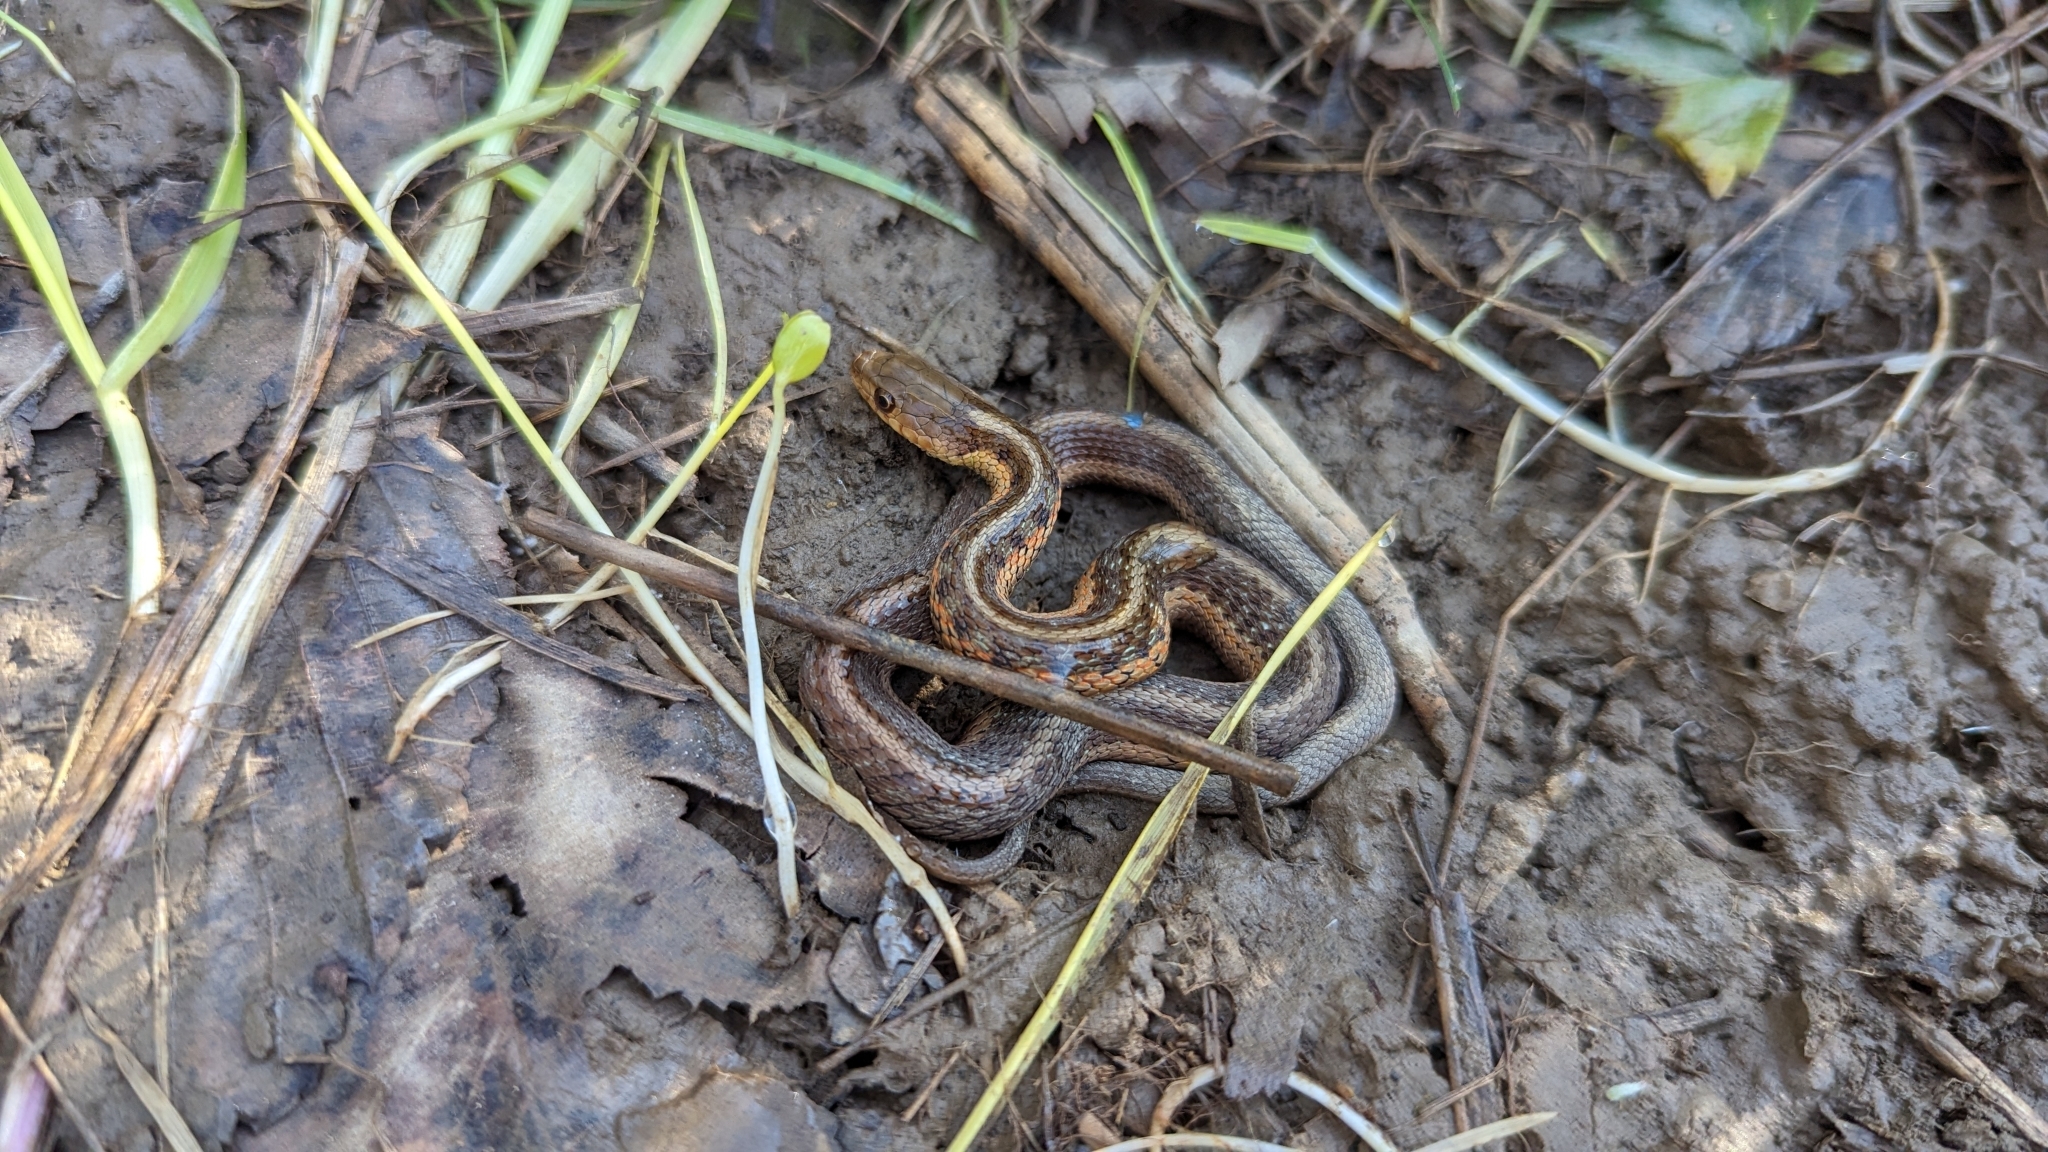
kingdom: Animalia
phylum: Chordata
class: Squamata
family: Colubridae
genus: Thamnophis
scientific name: Thamnophis sirtalis
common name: Common garter snake
